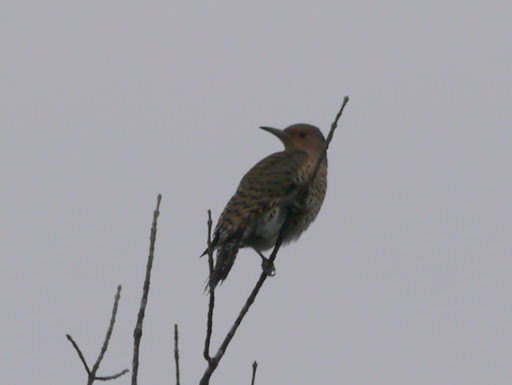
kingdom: Animalia
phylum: Chordata
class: Aves
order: Piciformes
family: Picidae
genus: Colaptes
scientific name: Colaptes auratus
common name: Northern flicker
